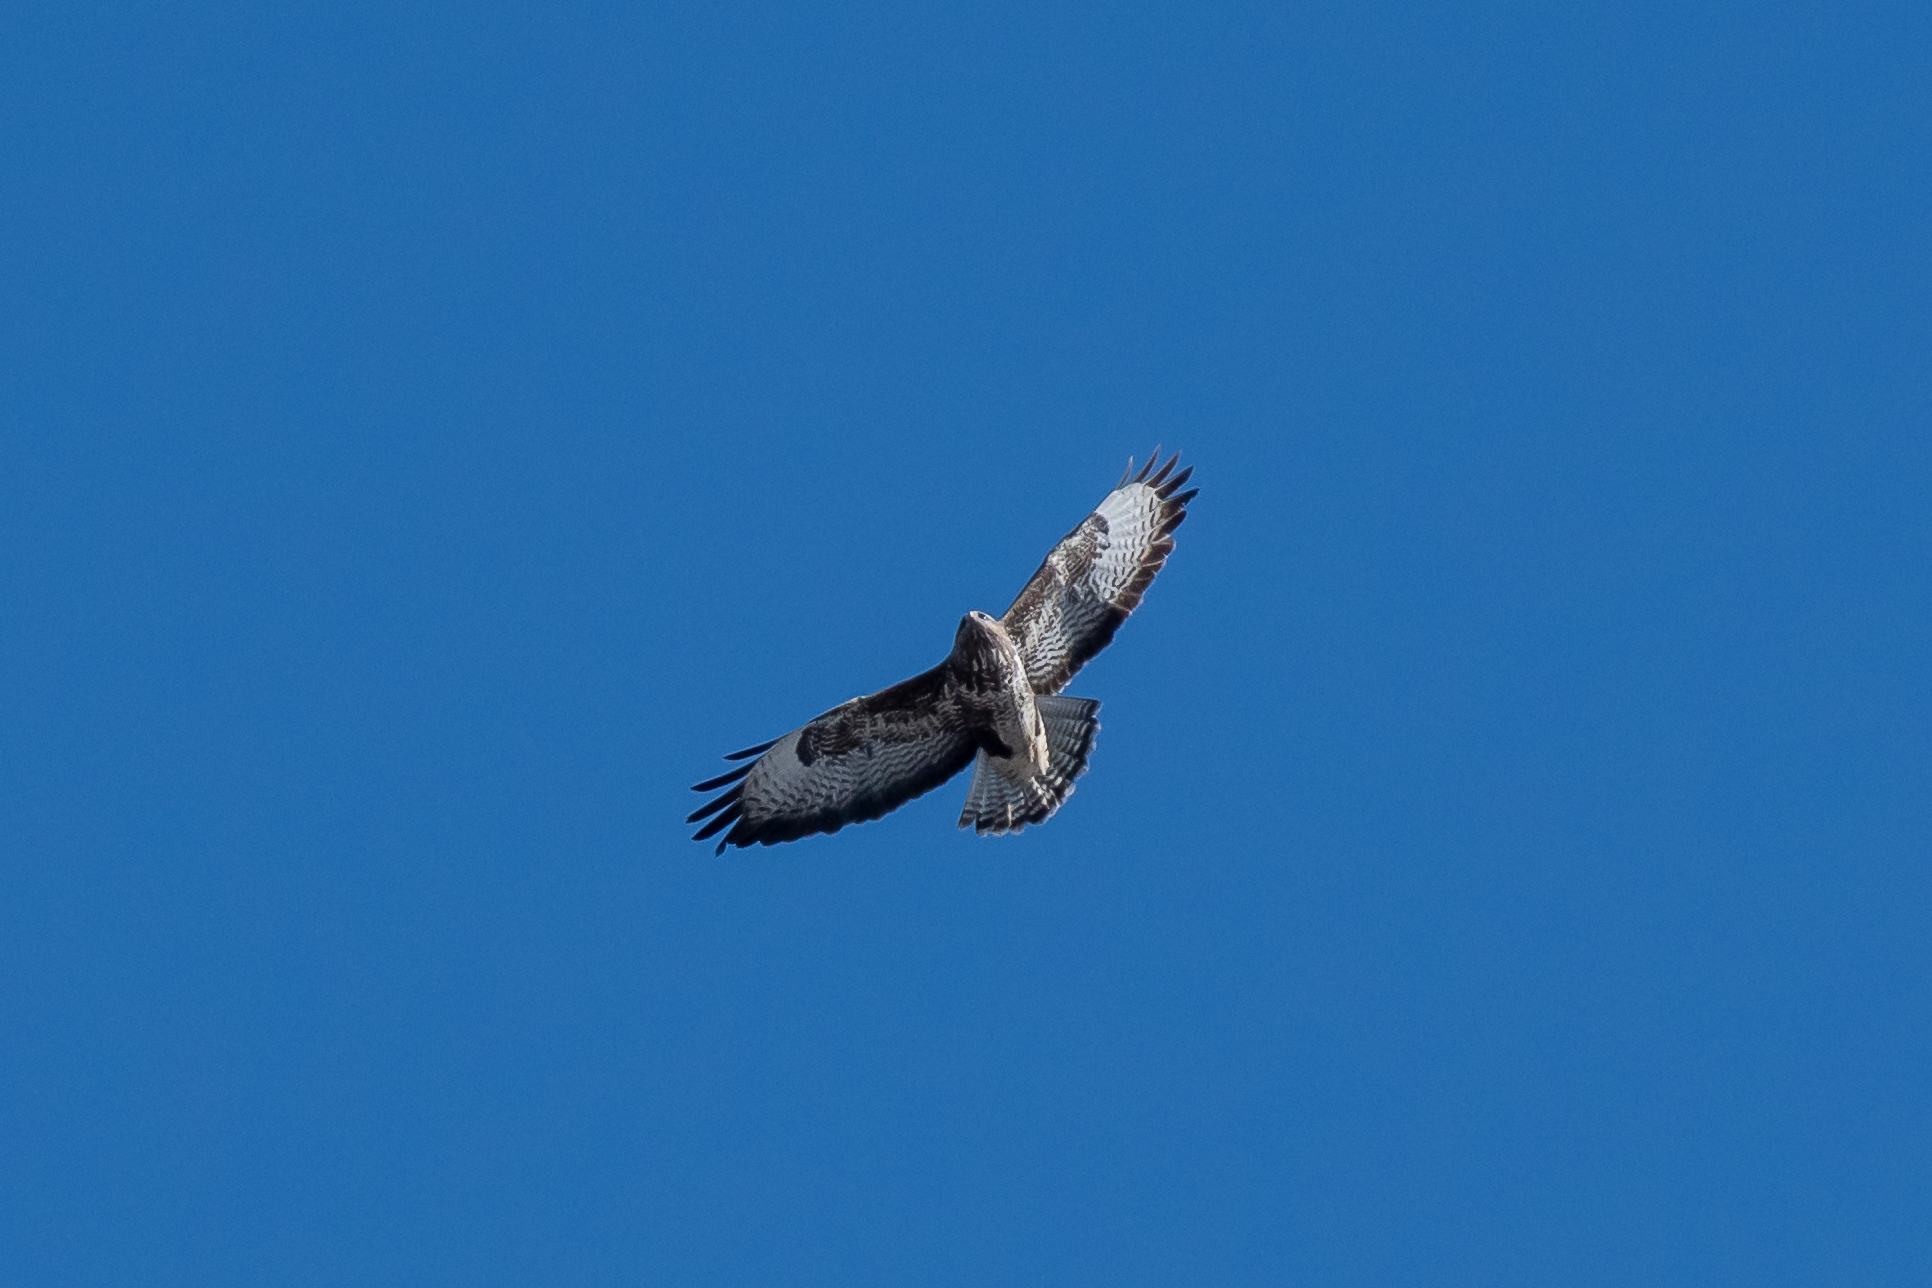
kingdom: Animalia
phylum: Chordata
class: Aves
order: Accipitriformes
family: Accipitridae
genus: Buteo
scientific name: Buteo buteo
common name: Common buzzard
